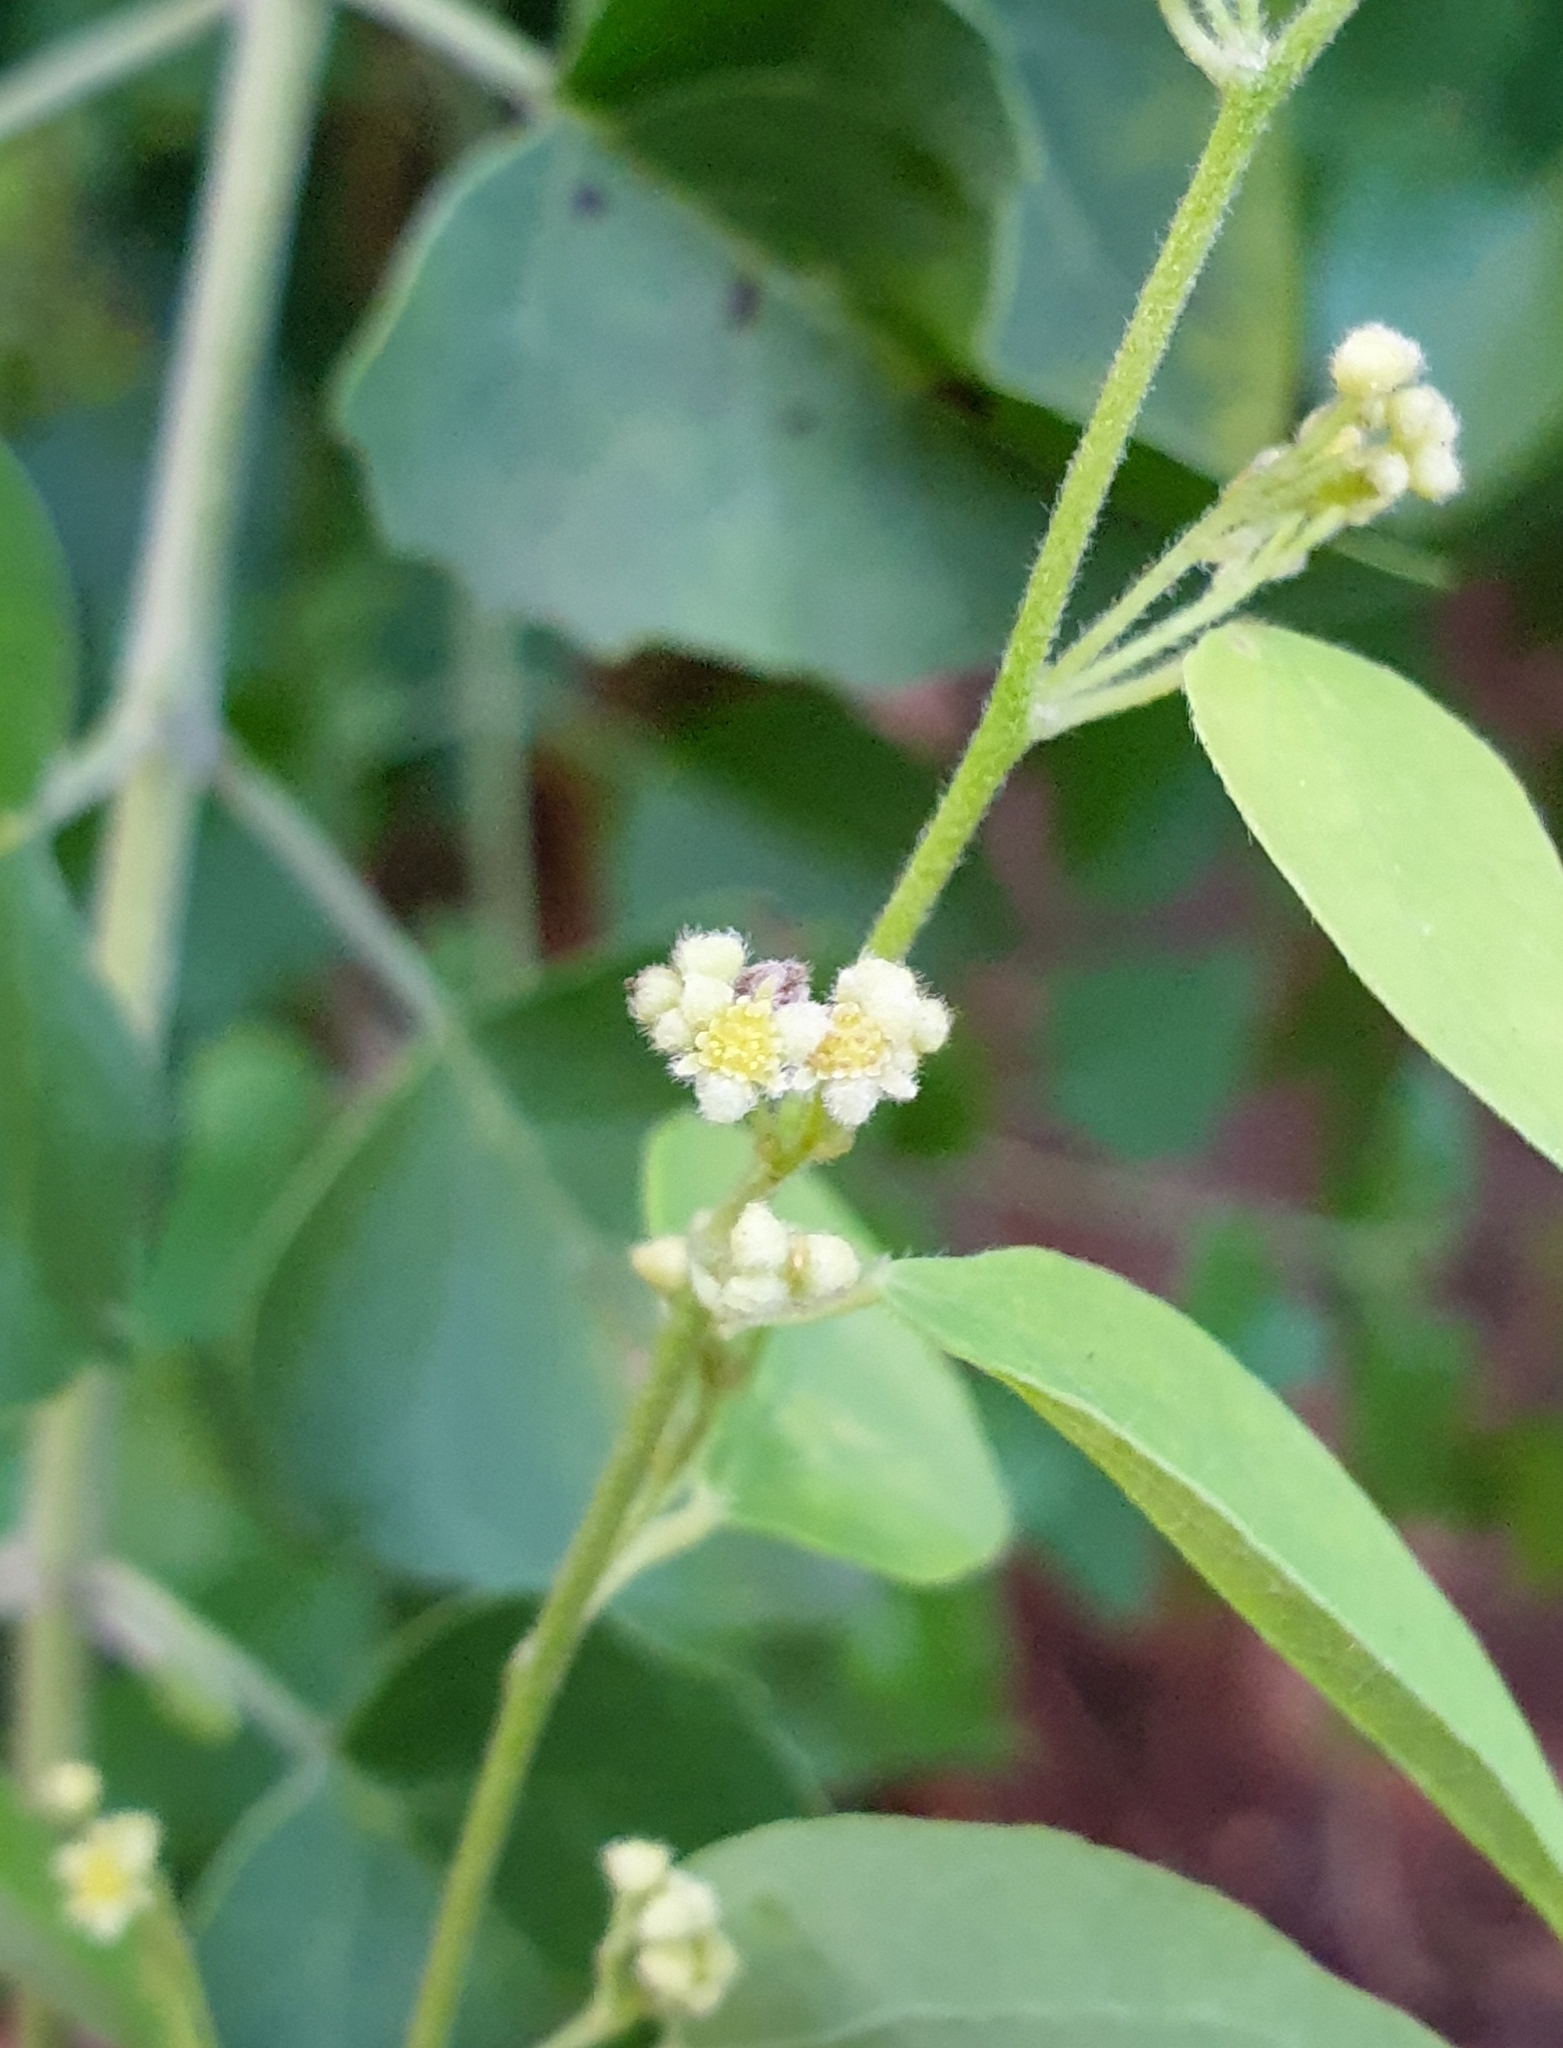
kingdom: Plantae
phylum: Tracheophyta
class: Magnoliopsida
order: Ranunculales
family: Menispermaceae
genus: Cocculus
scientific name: Cocculus hirsutus
